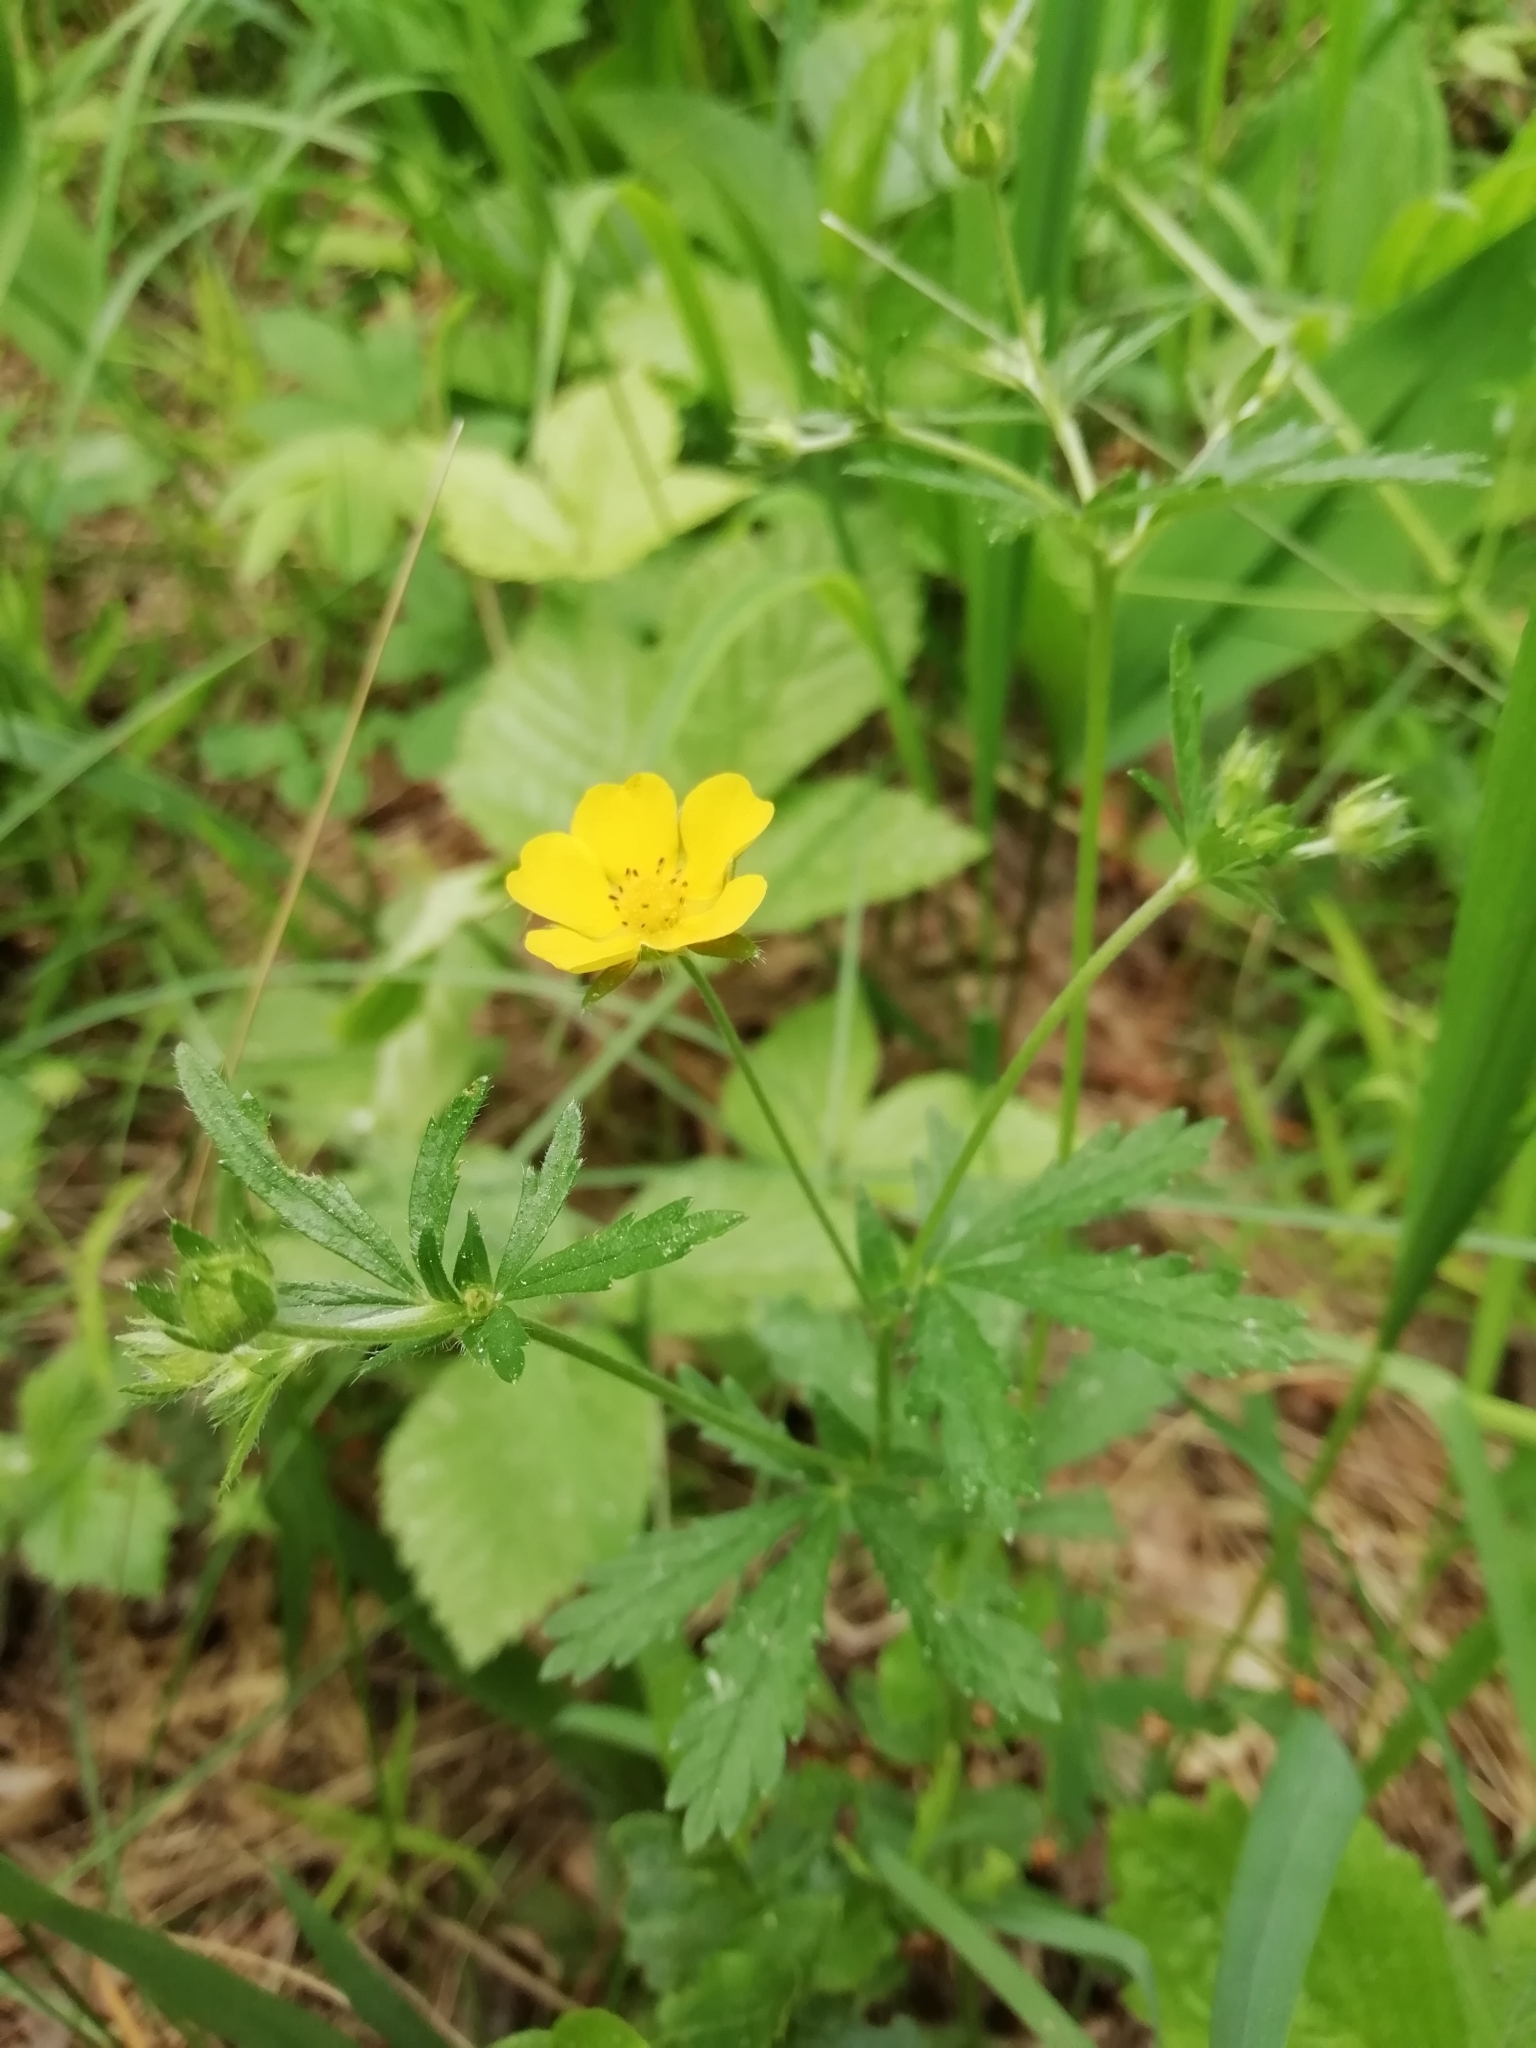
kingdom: Plantae
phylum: Tracheophyta
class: Magnoliopsida
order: Rosales
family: Rosaceae
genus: Potentilla
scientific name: Potentilla thuringiaca
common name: European cinquefoil
